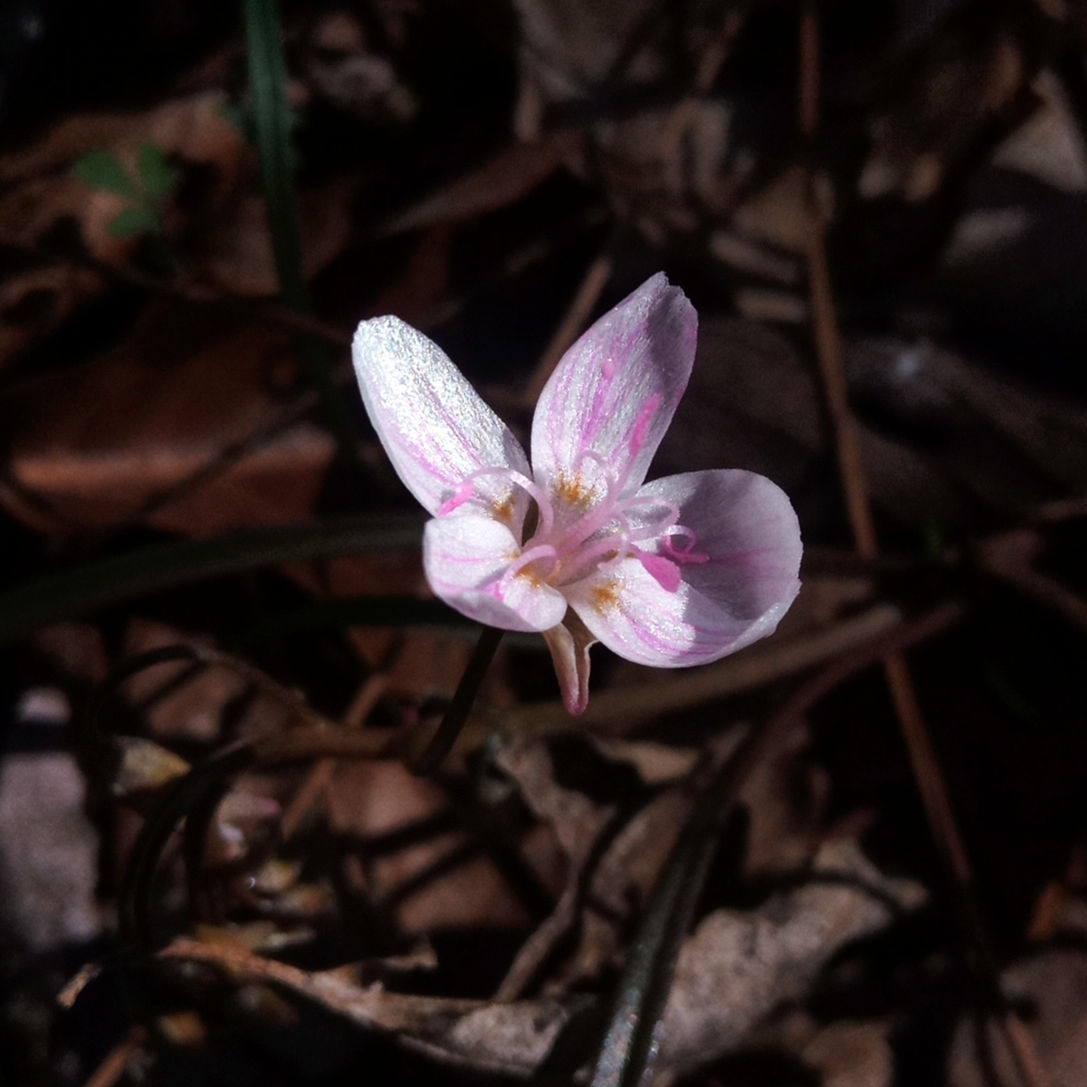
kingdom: Plantae
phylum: Tracheophyta
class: Magnoliopsida
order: Caryophyllales
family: Montiaceae
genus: Claytonia
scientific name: Claytonia virginica
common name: Virginia springbeauty
